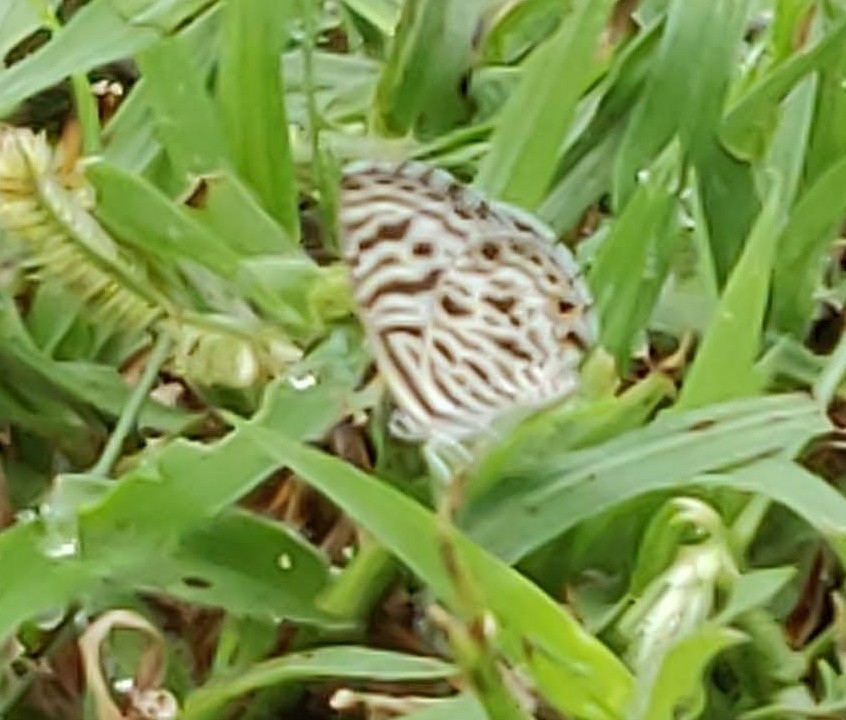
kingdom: Animalia
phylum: Arthropoda
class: Insecta
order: Lepidoptera
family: Lycaenidae
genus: Leptotes
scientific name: Leptotes plinius
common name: Zebra blue
